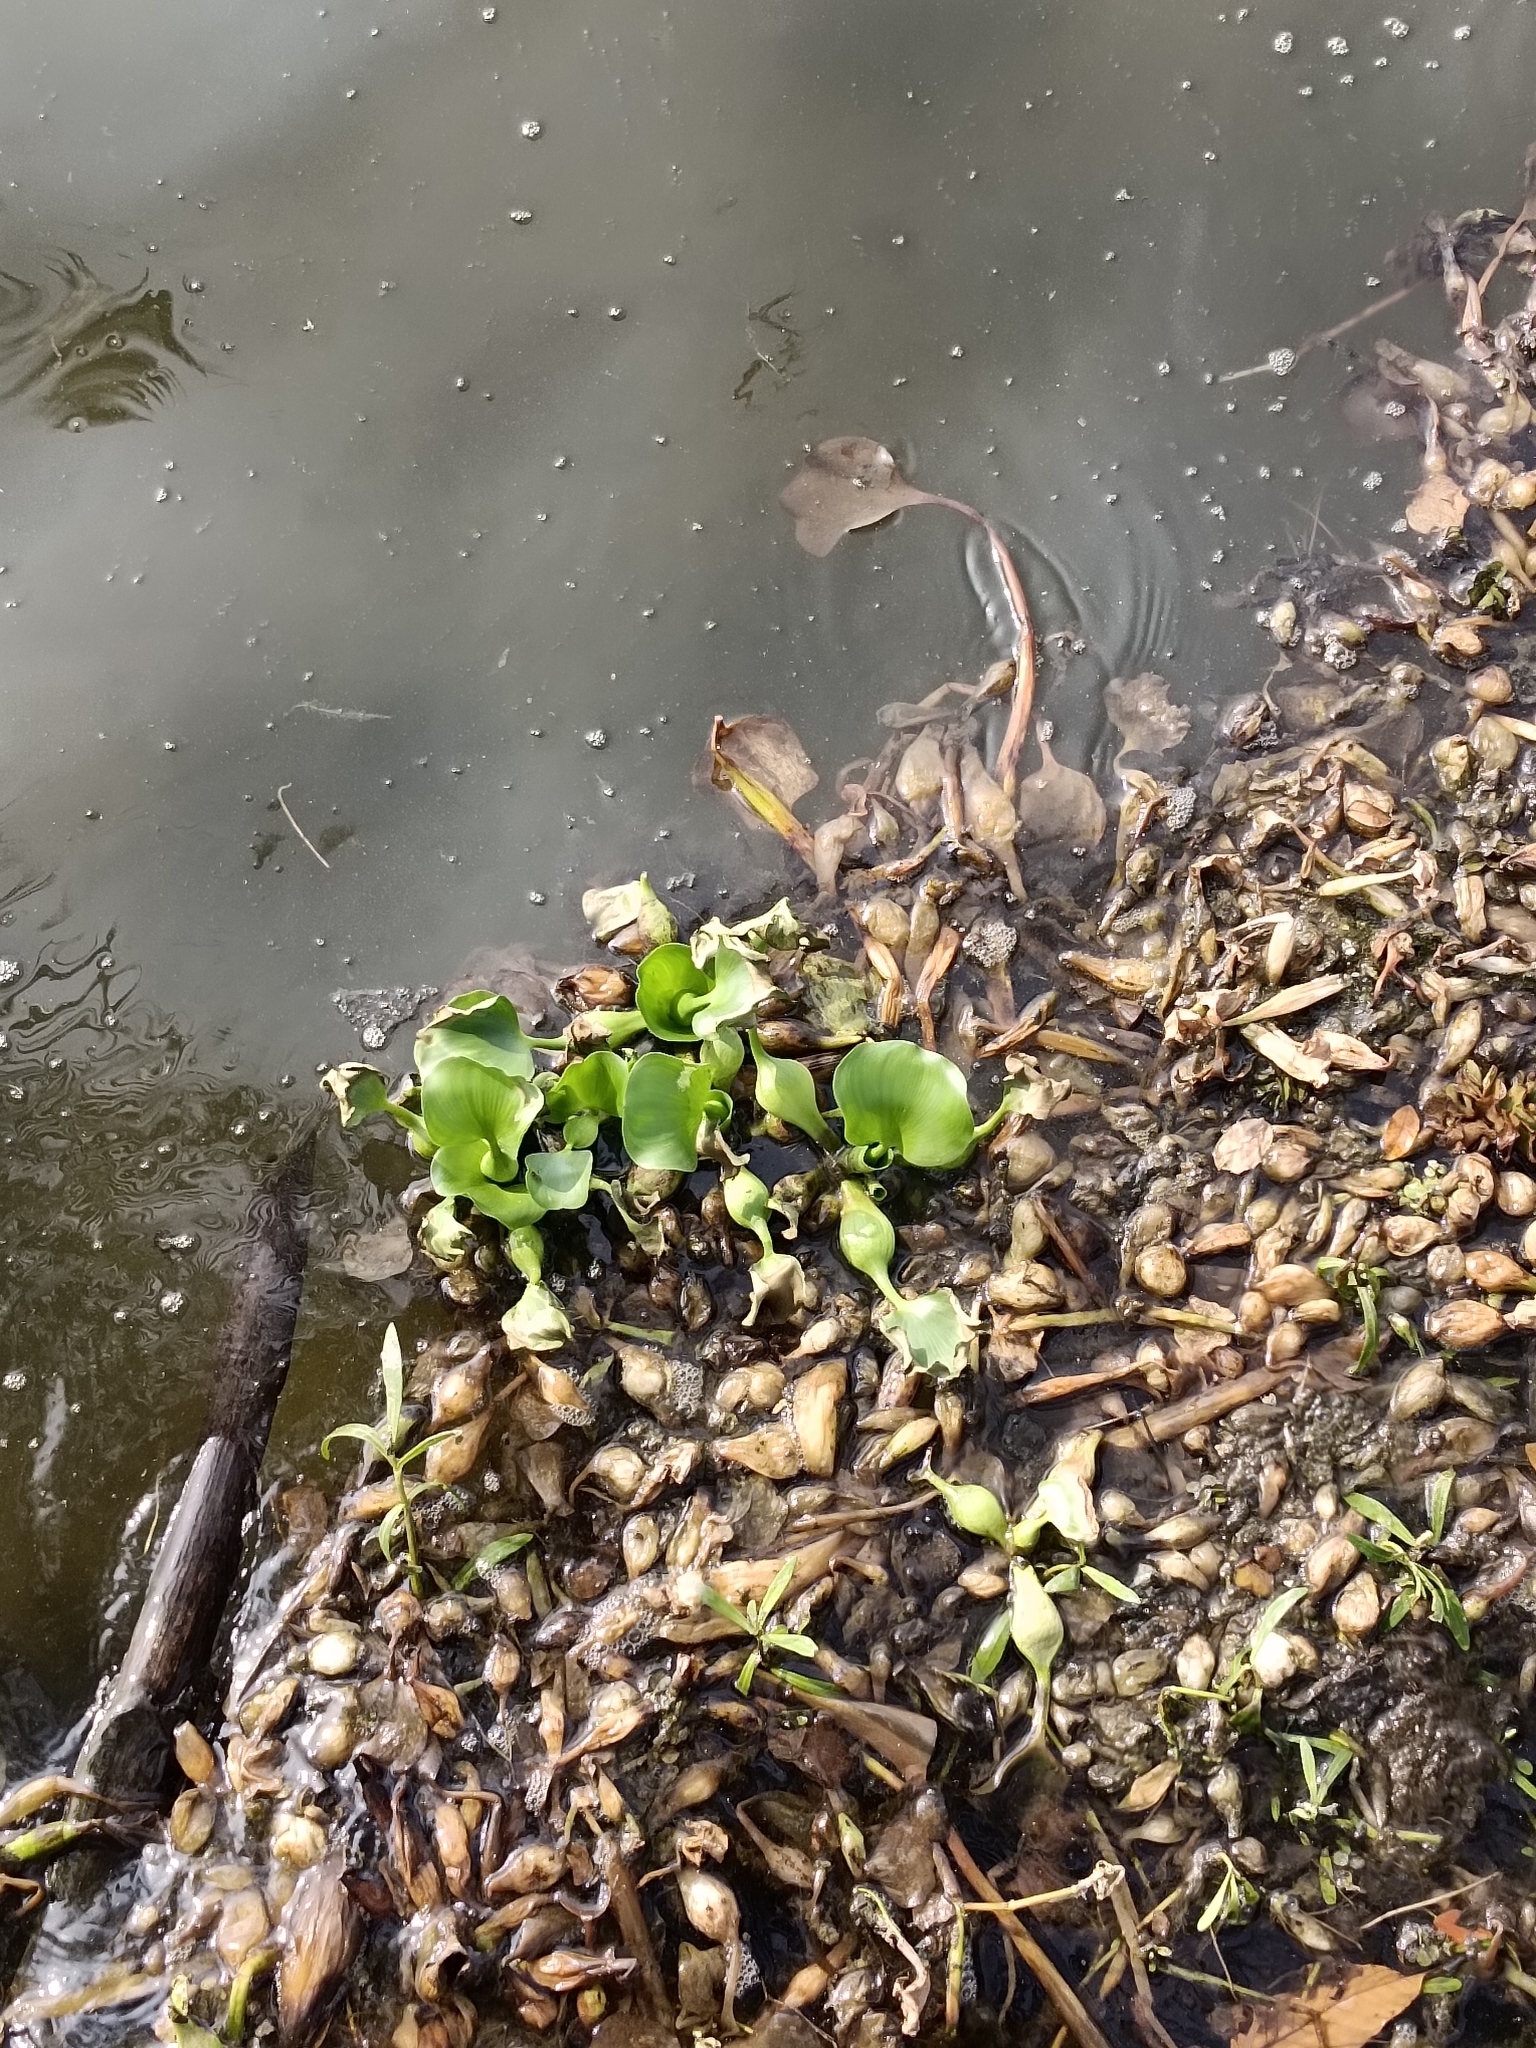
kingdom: Plantae
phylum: Tracheophyta
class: Liliopsida
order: Commelinales
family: Pontederiaceae
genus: Pontederia
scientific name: Pontederia crassipes
